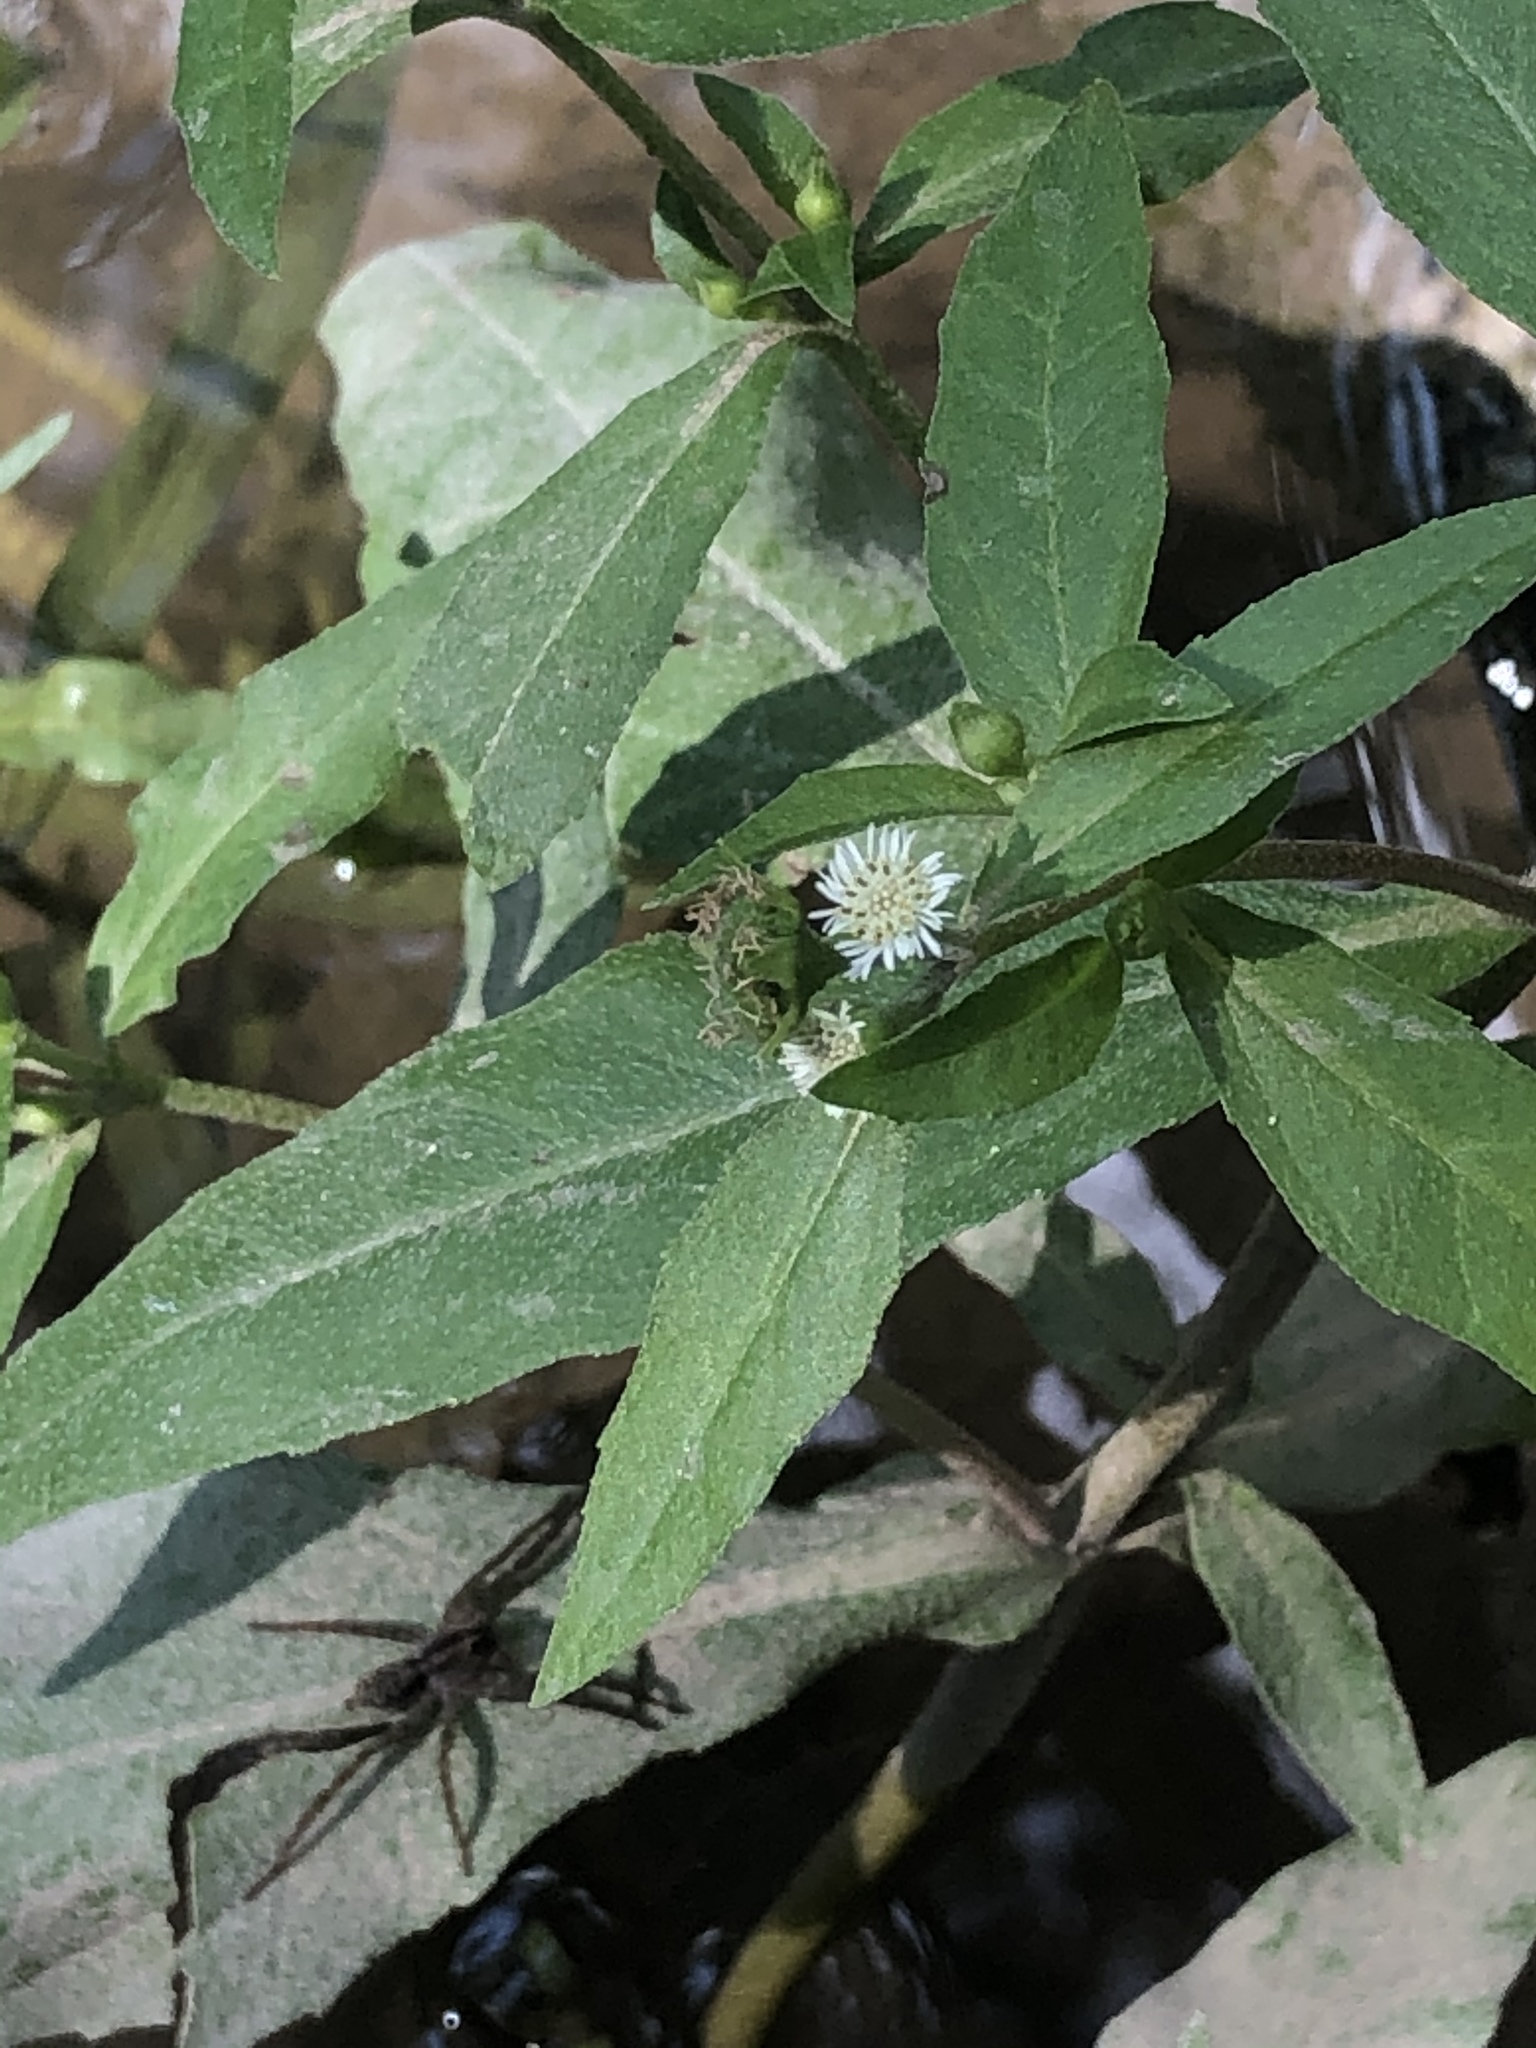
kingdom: Plantae
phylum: Tracheophyta
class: Magnoliopsida
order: Asterales
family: Asteraceae
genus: Eclipta
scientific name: Eclipta prostrata
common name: False daisy
